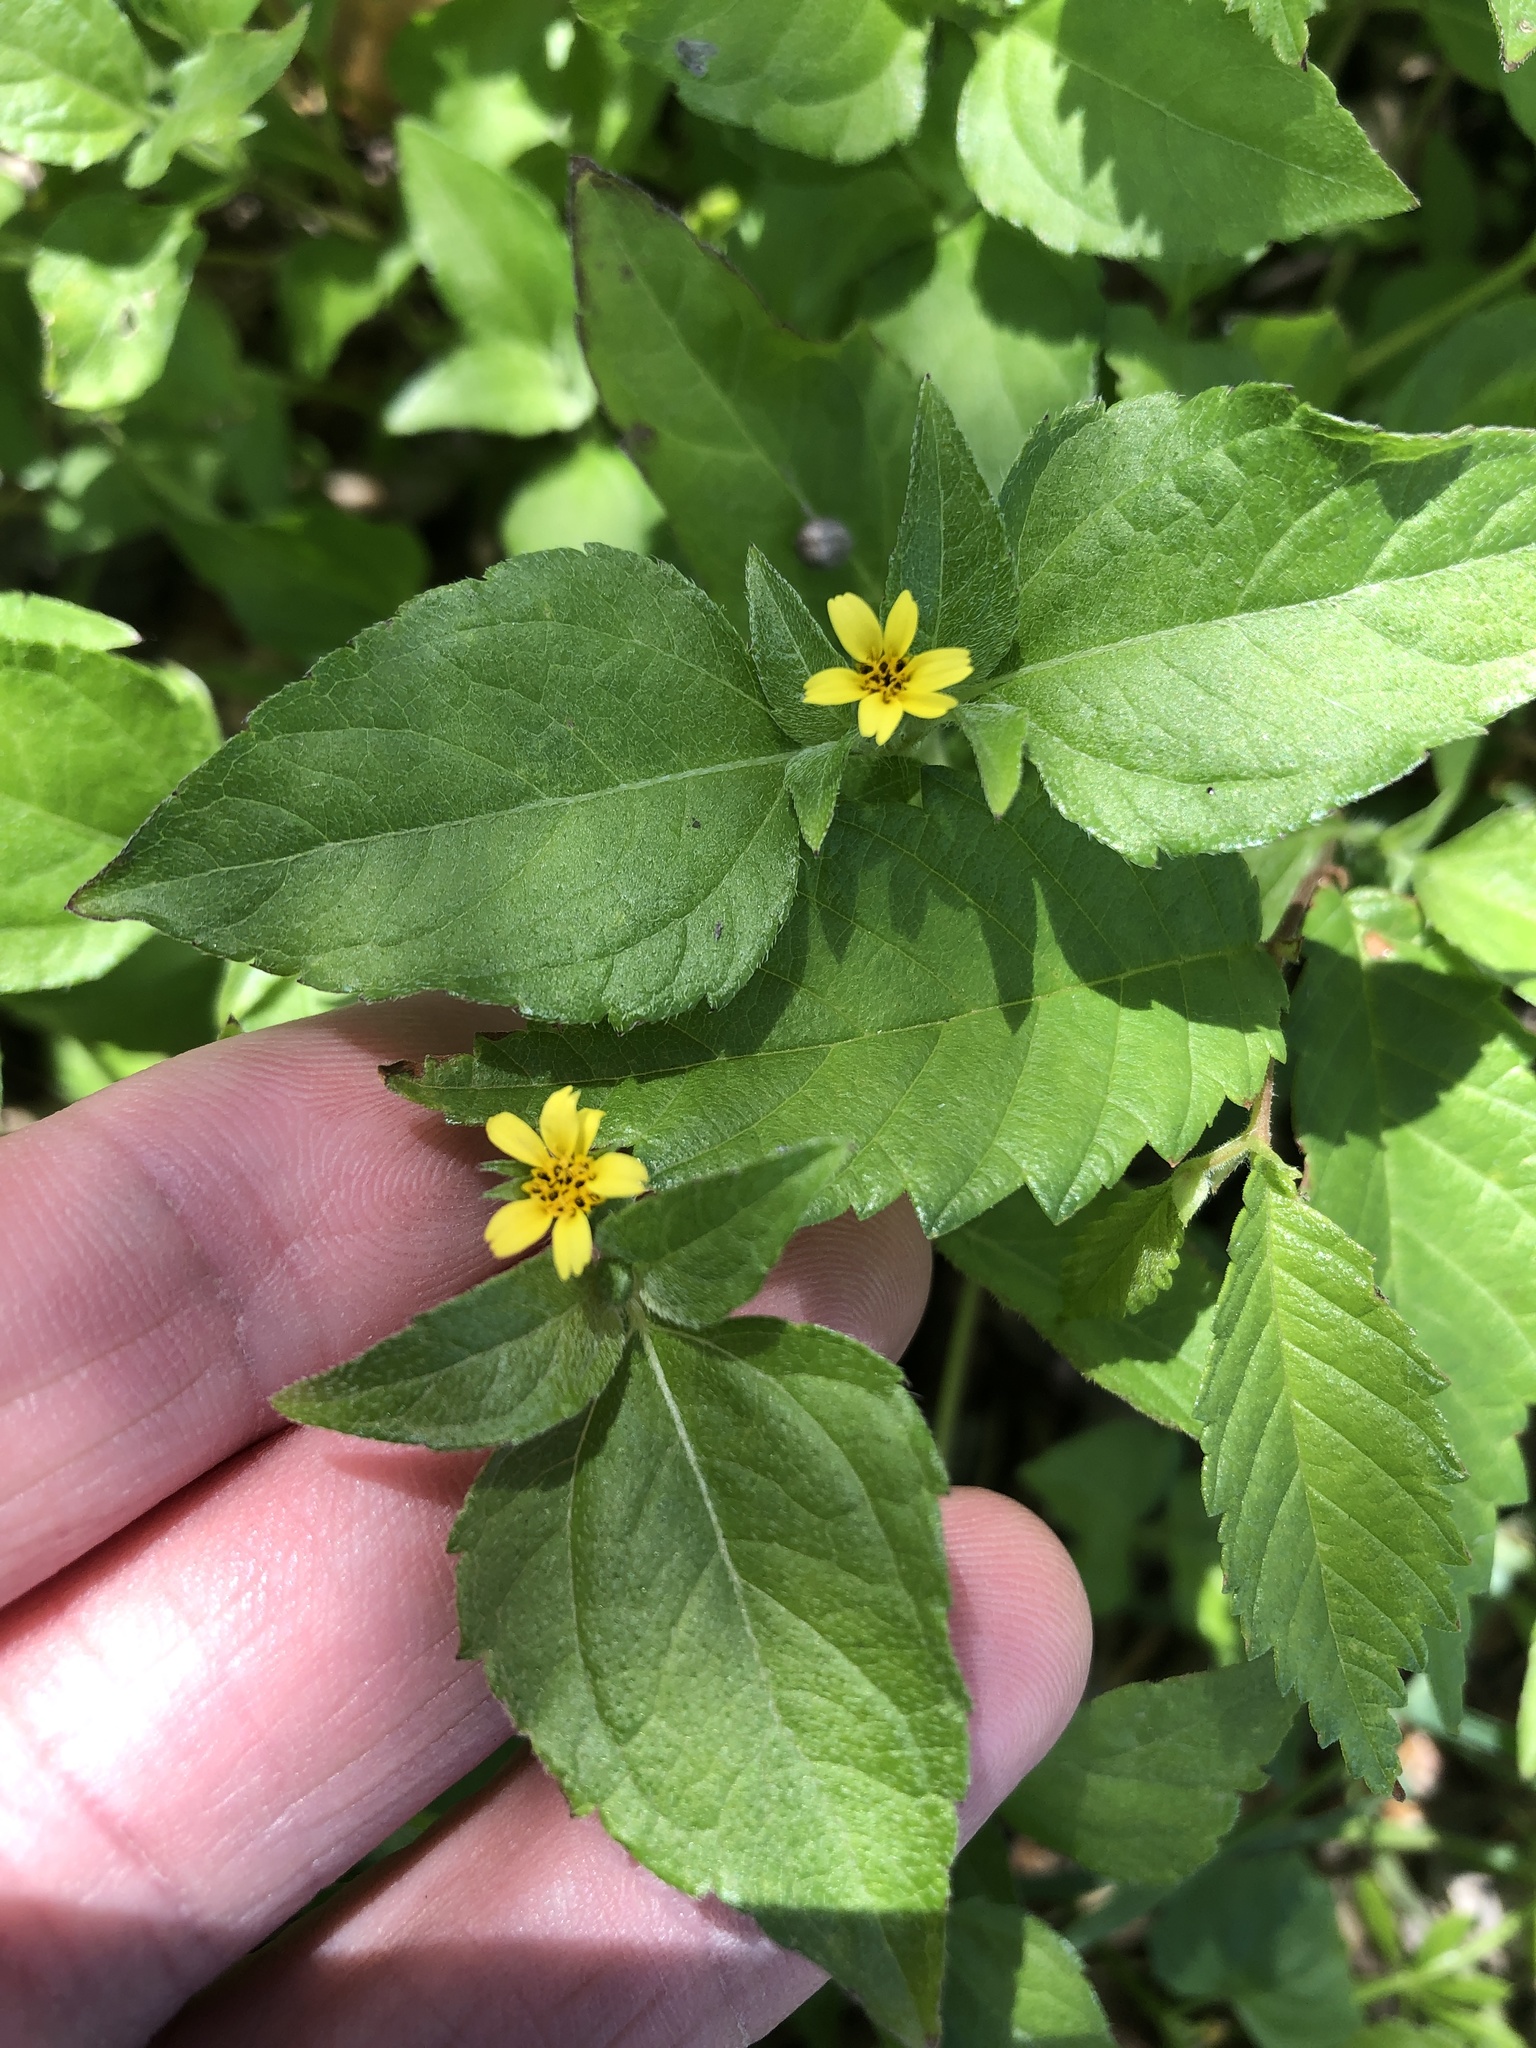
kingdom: Plantae
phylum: Tracheophyta
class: Magnoliopsida
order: Asterales
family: Asteraceae
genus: Calyptocarpus
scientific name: Calyptocarpus vialis
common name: Straggler daisy
